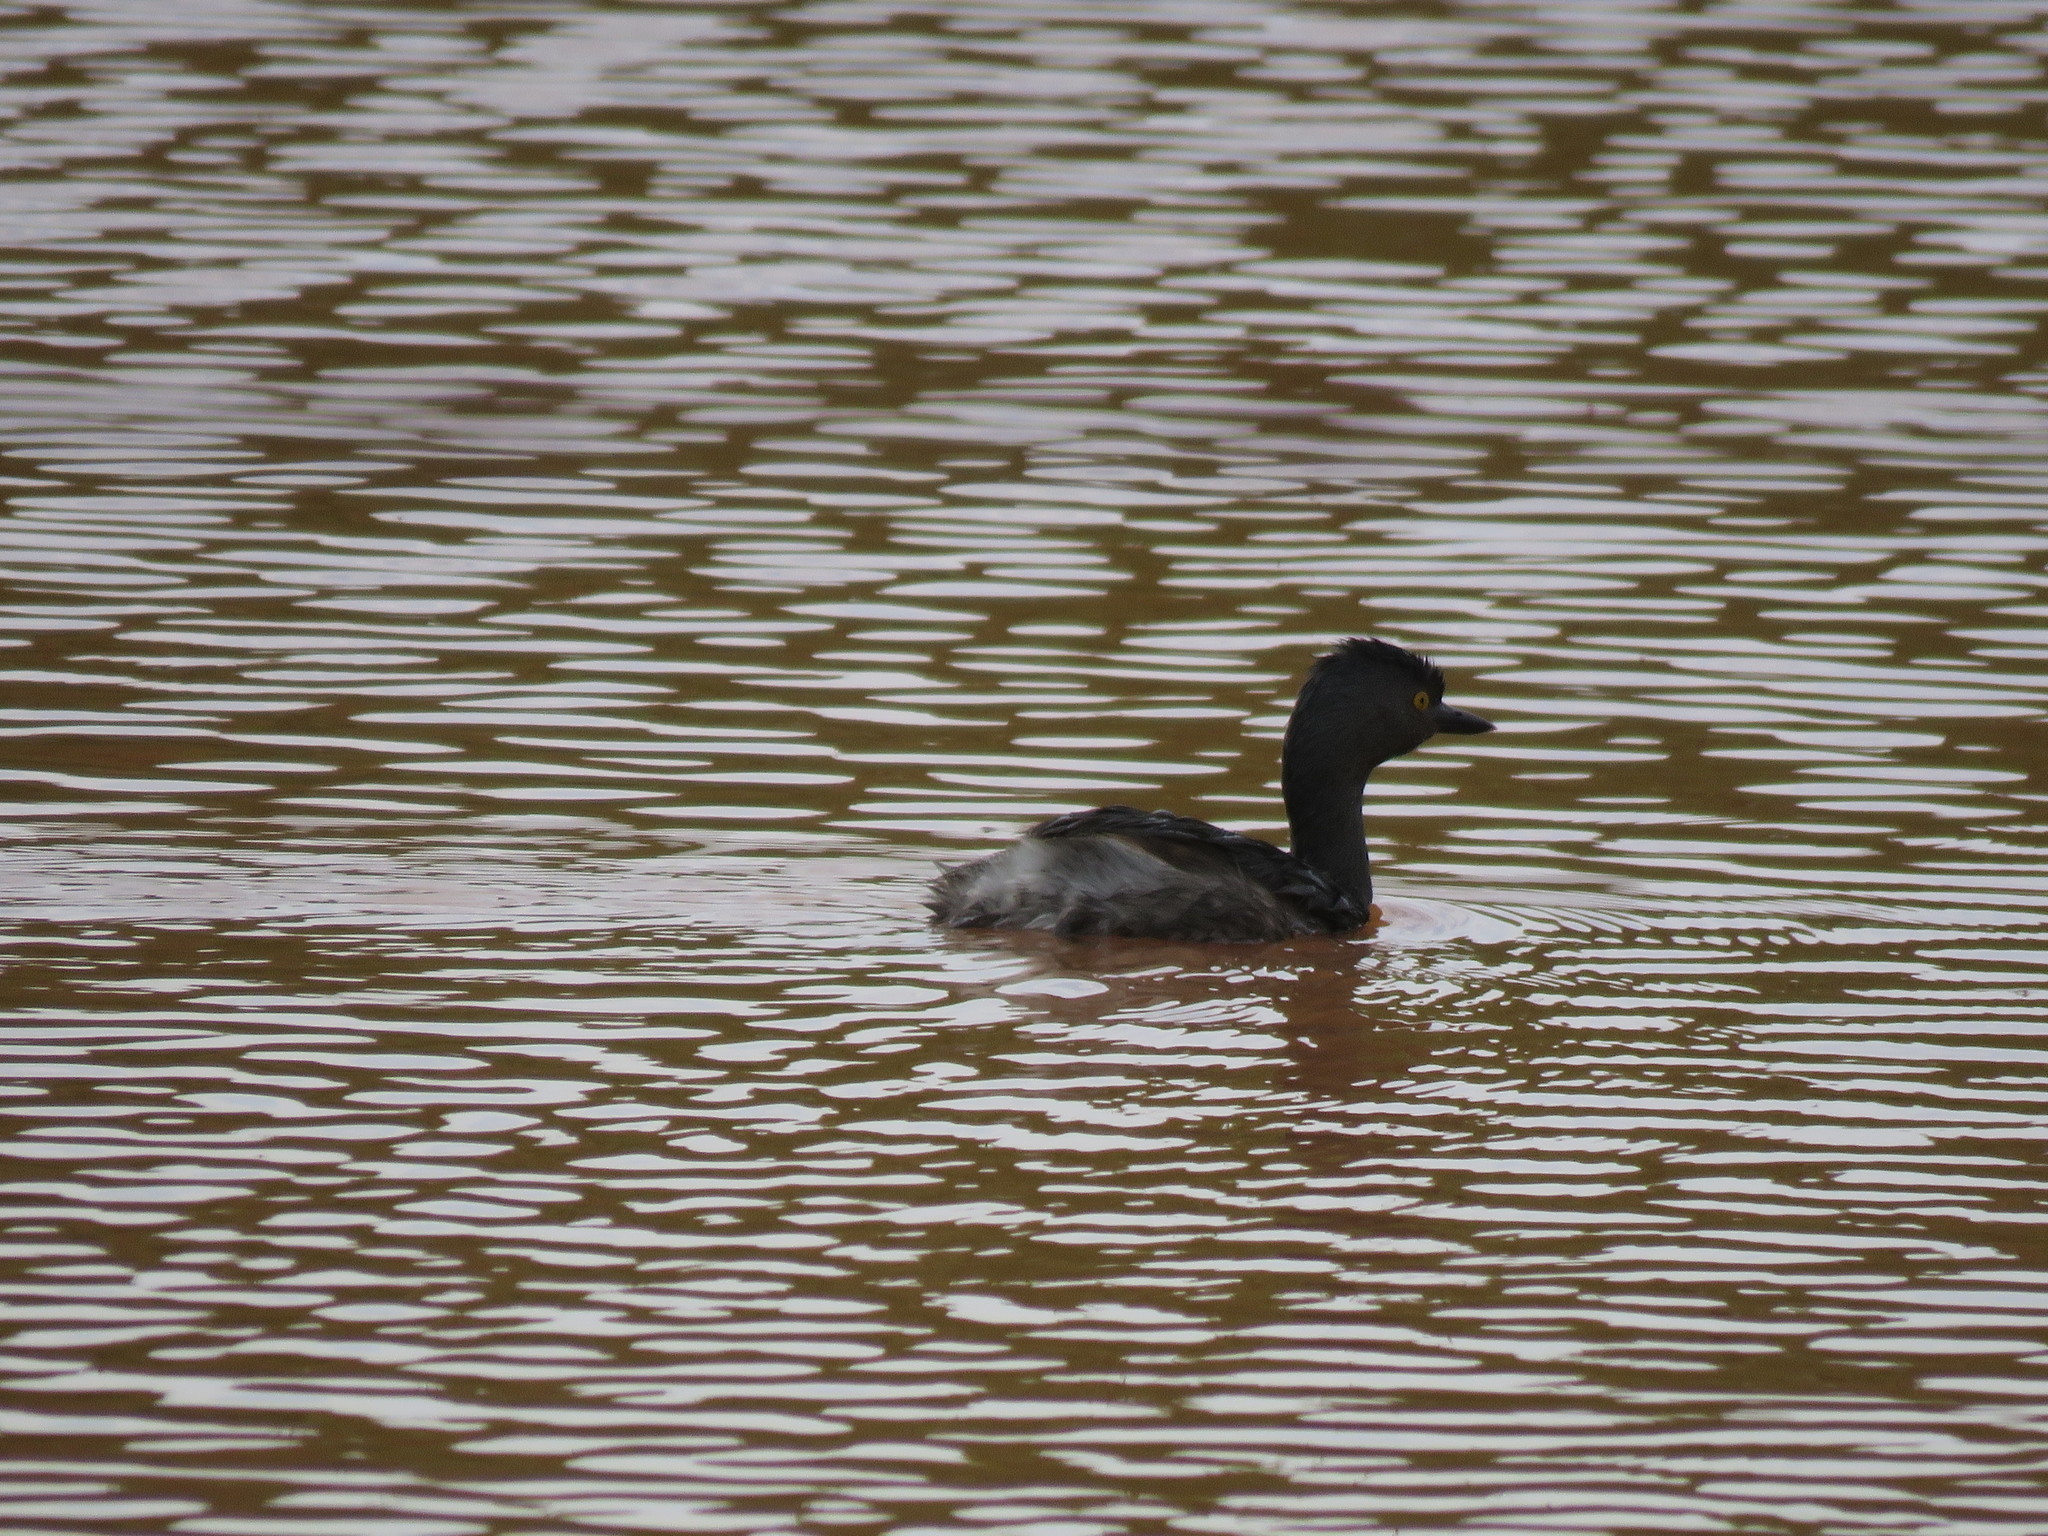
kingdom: Animalia
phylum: Chordata
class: Aves
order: Podicipediformes
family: Podicipedidae
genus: Tachybaptus
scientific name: Tachybaptus dominicus
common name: Least grebe
